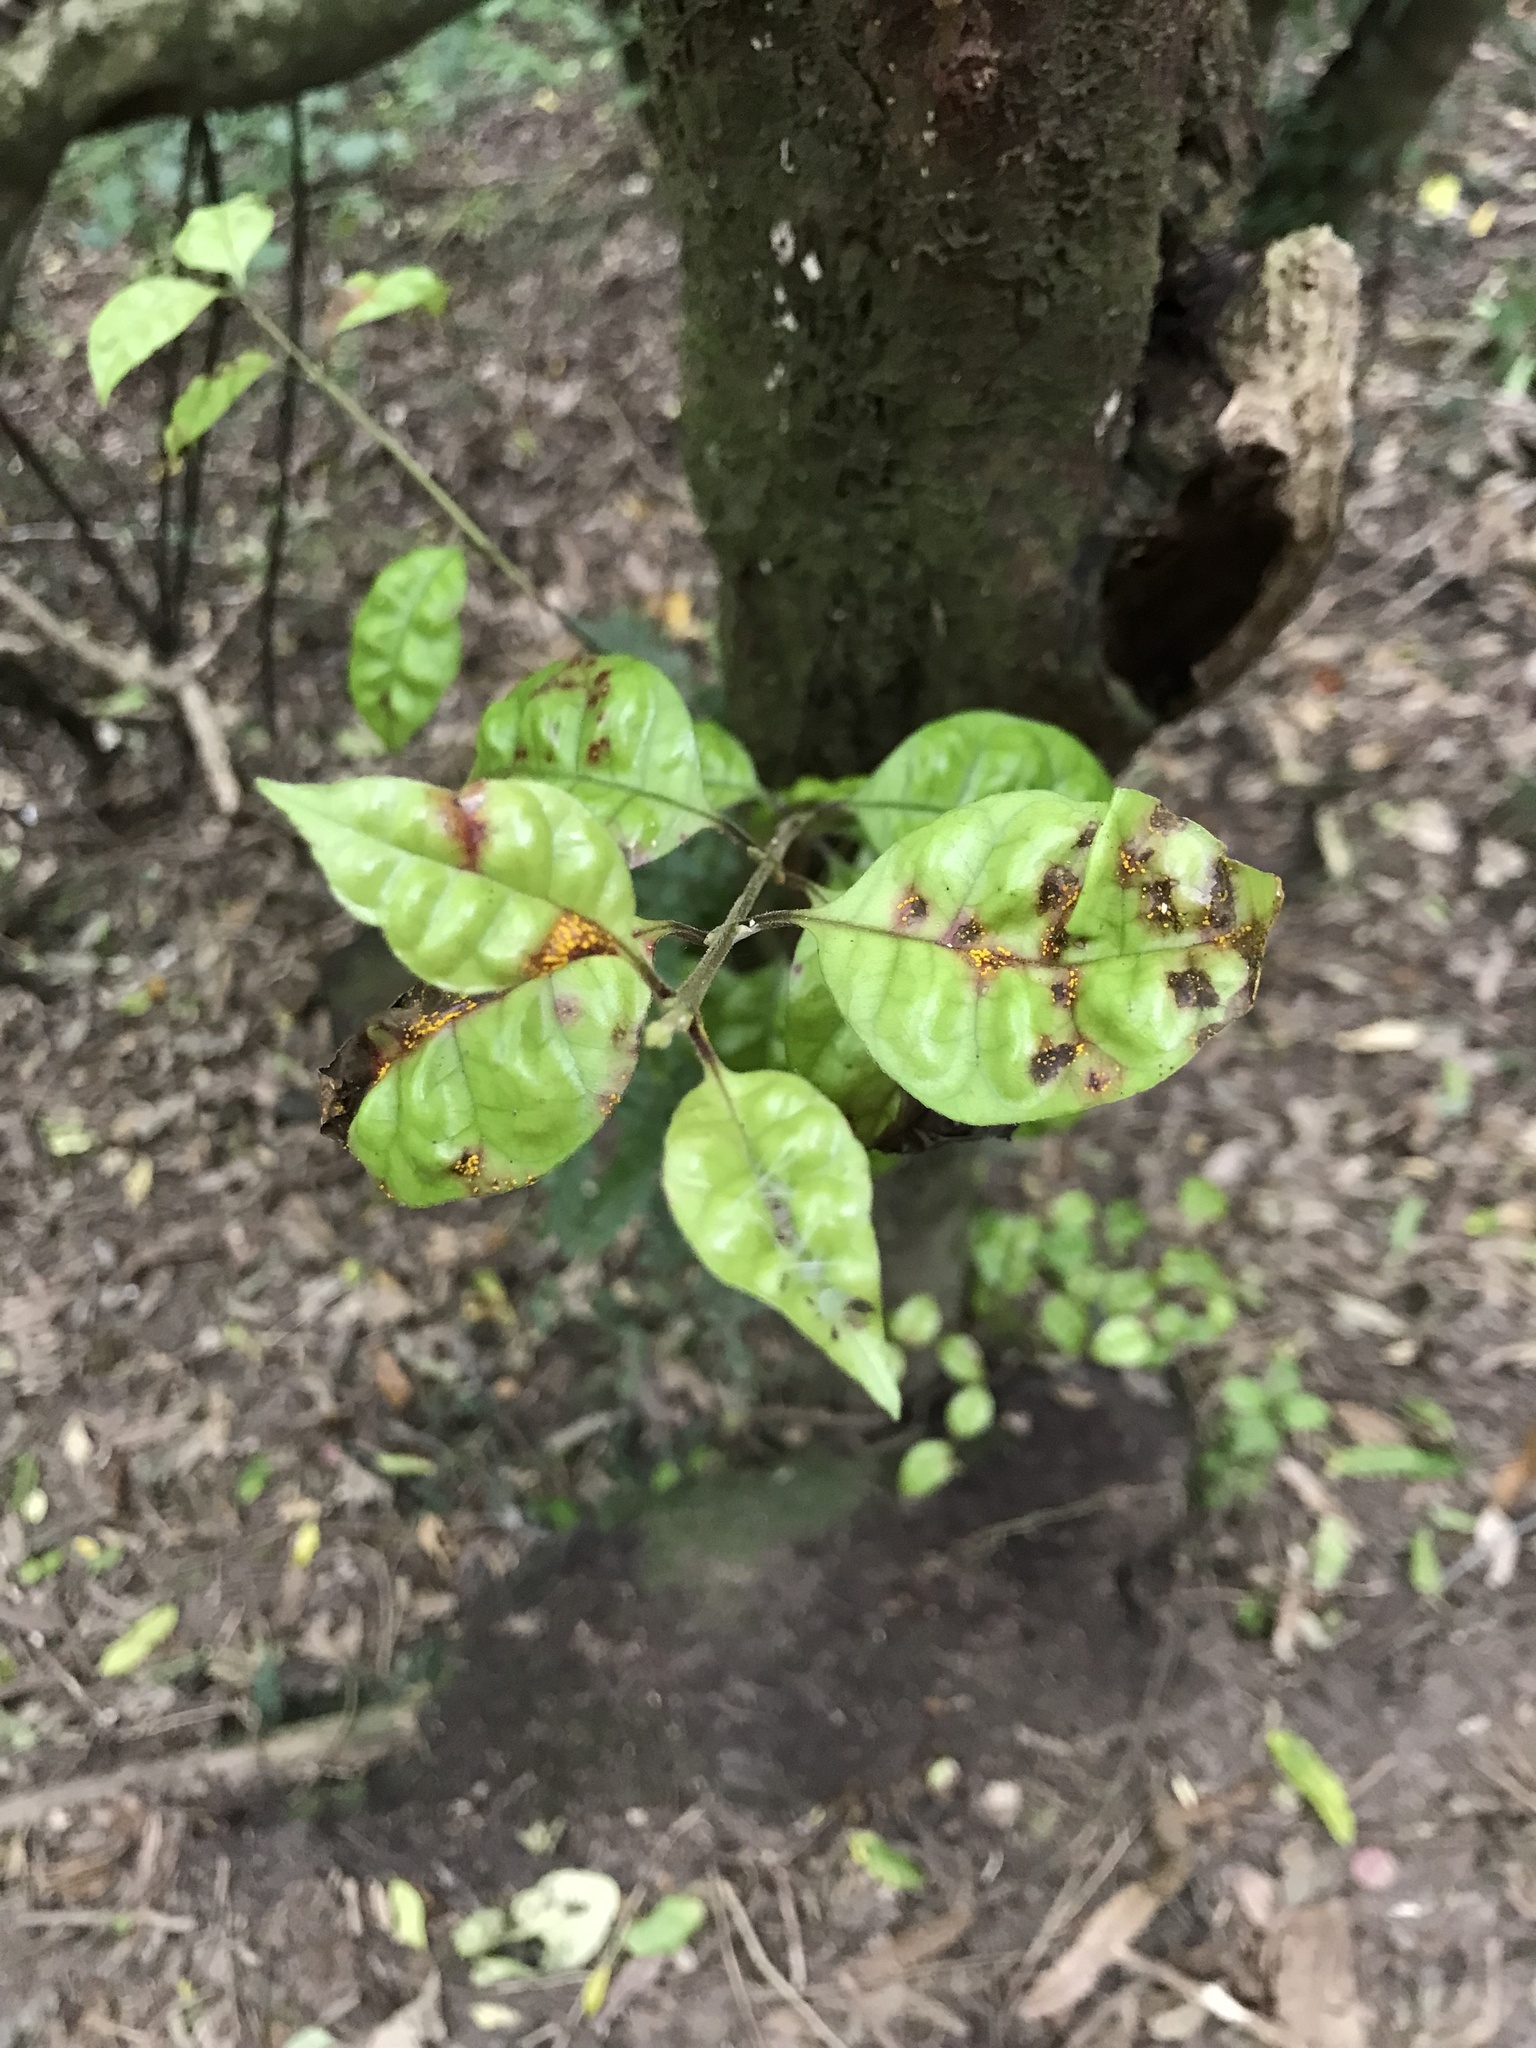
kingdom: Fungi
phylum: Basidiomycota
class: Pucciniomycetes
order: Pucciniales
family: Sphaerophragmiaceae
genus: Austropuccinia
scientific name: Austropuccinia psidii
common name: Myrtle rust
